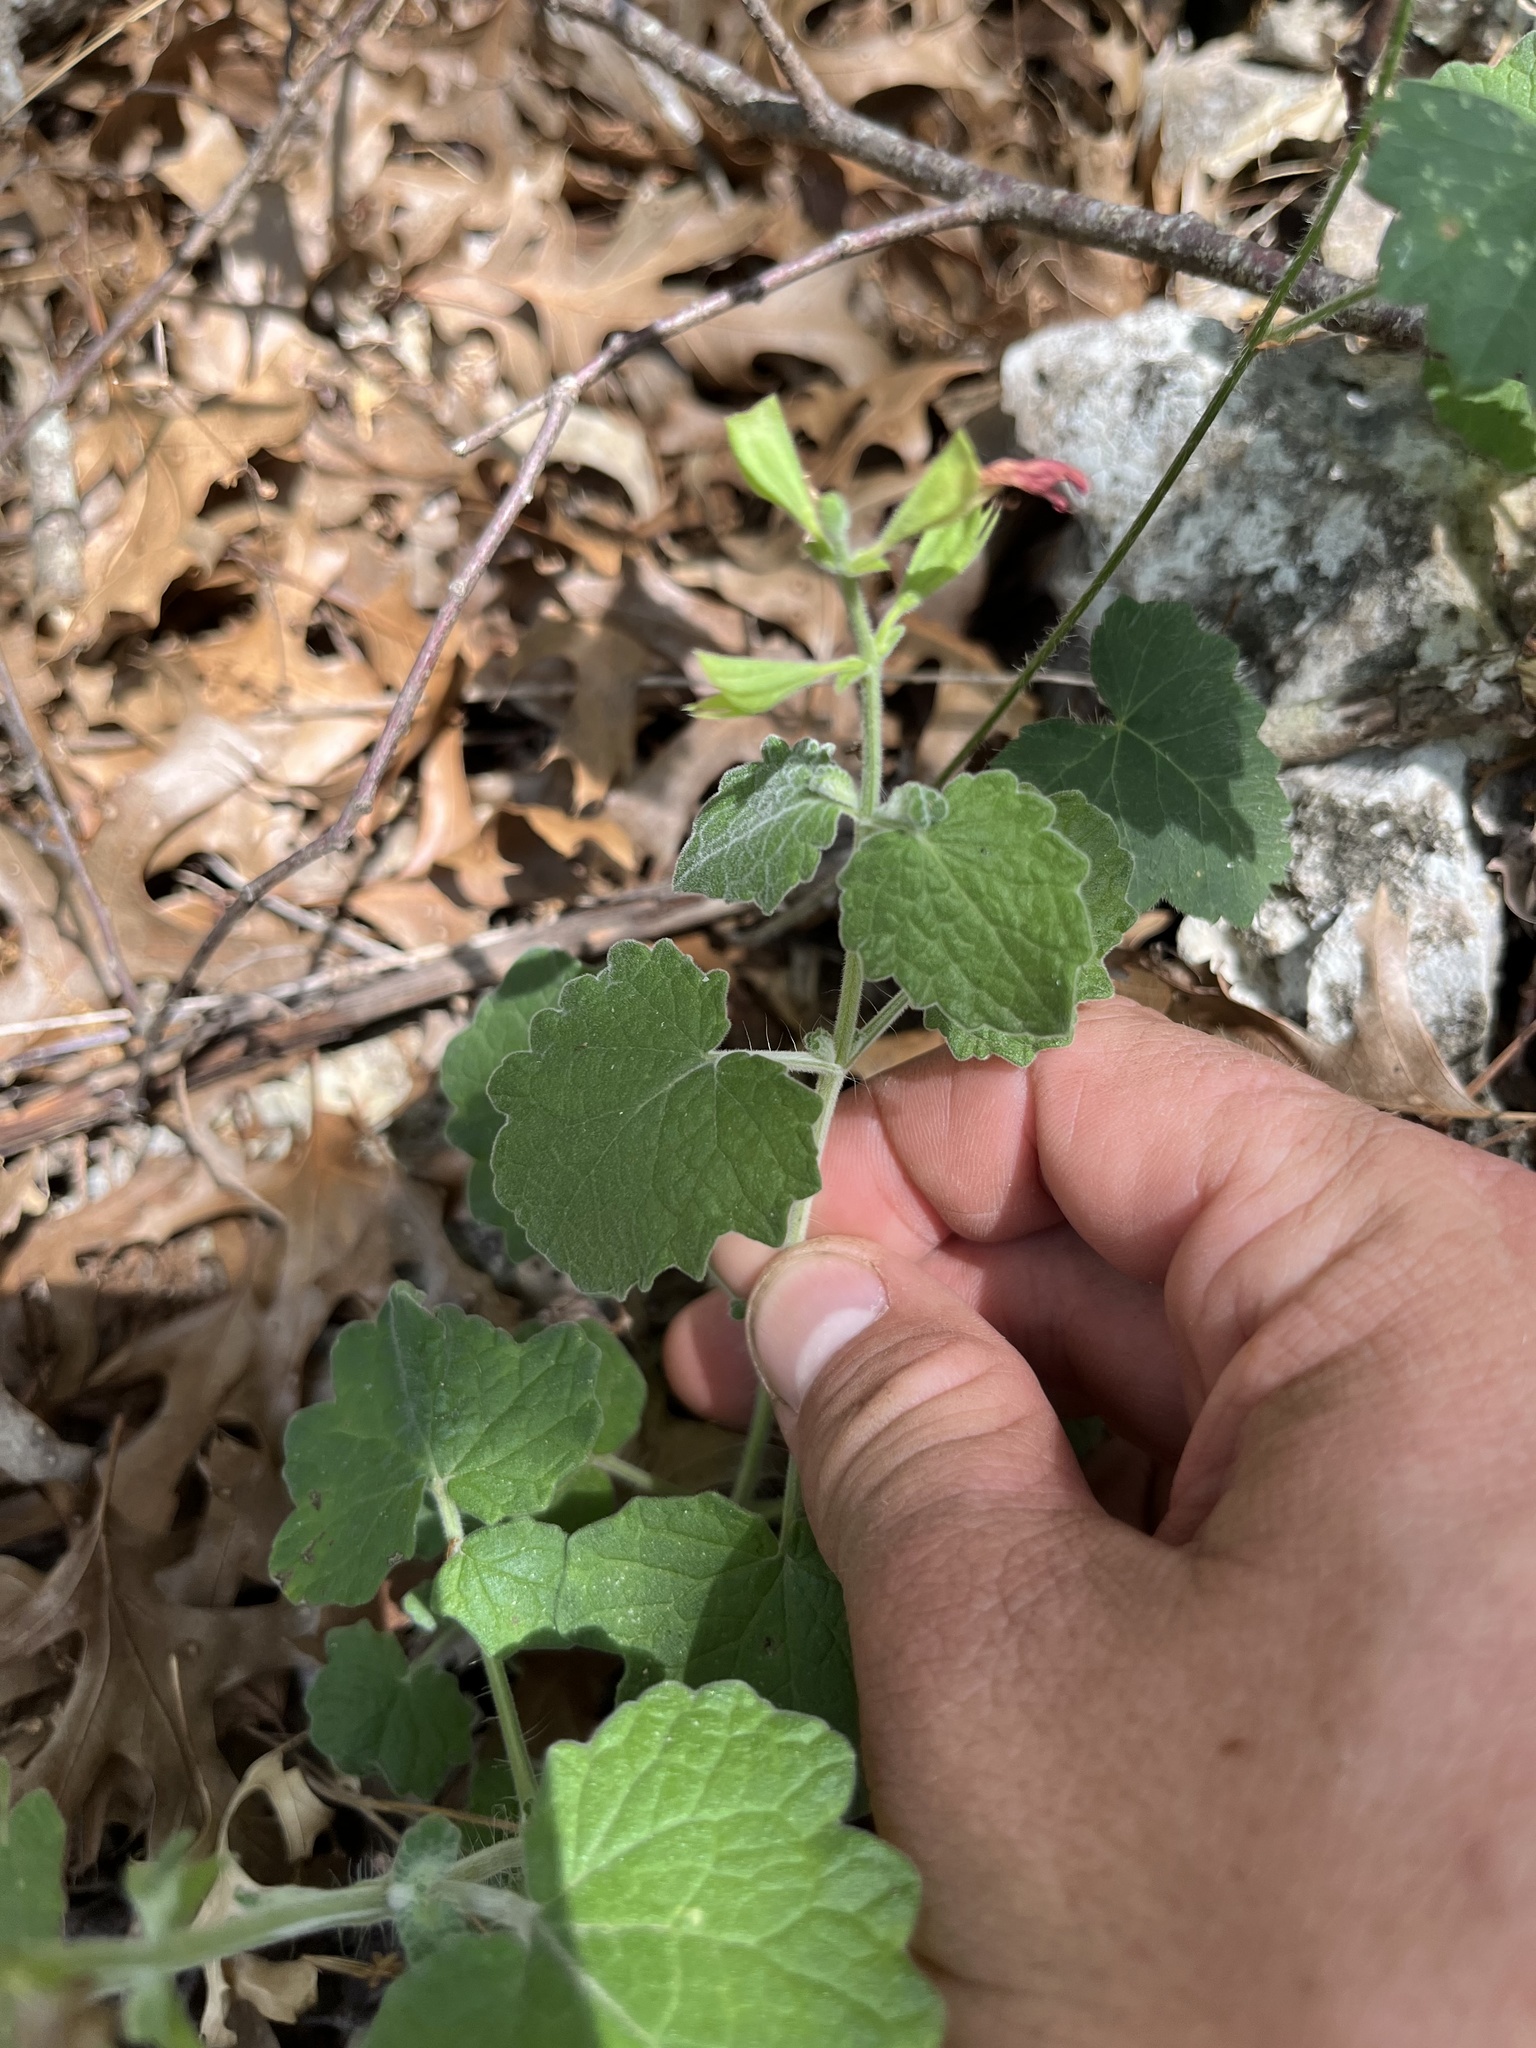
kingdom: Plantae
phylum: Tracheophyta
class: Magnoliopsida
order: Lamiales
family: Lamiaceae
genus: Salvia
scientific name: Salvia roemeriana
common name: Cedar sage
